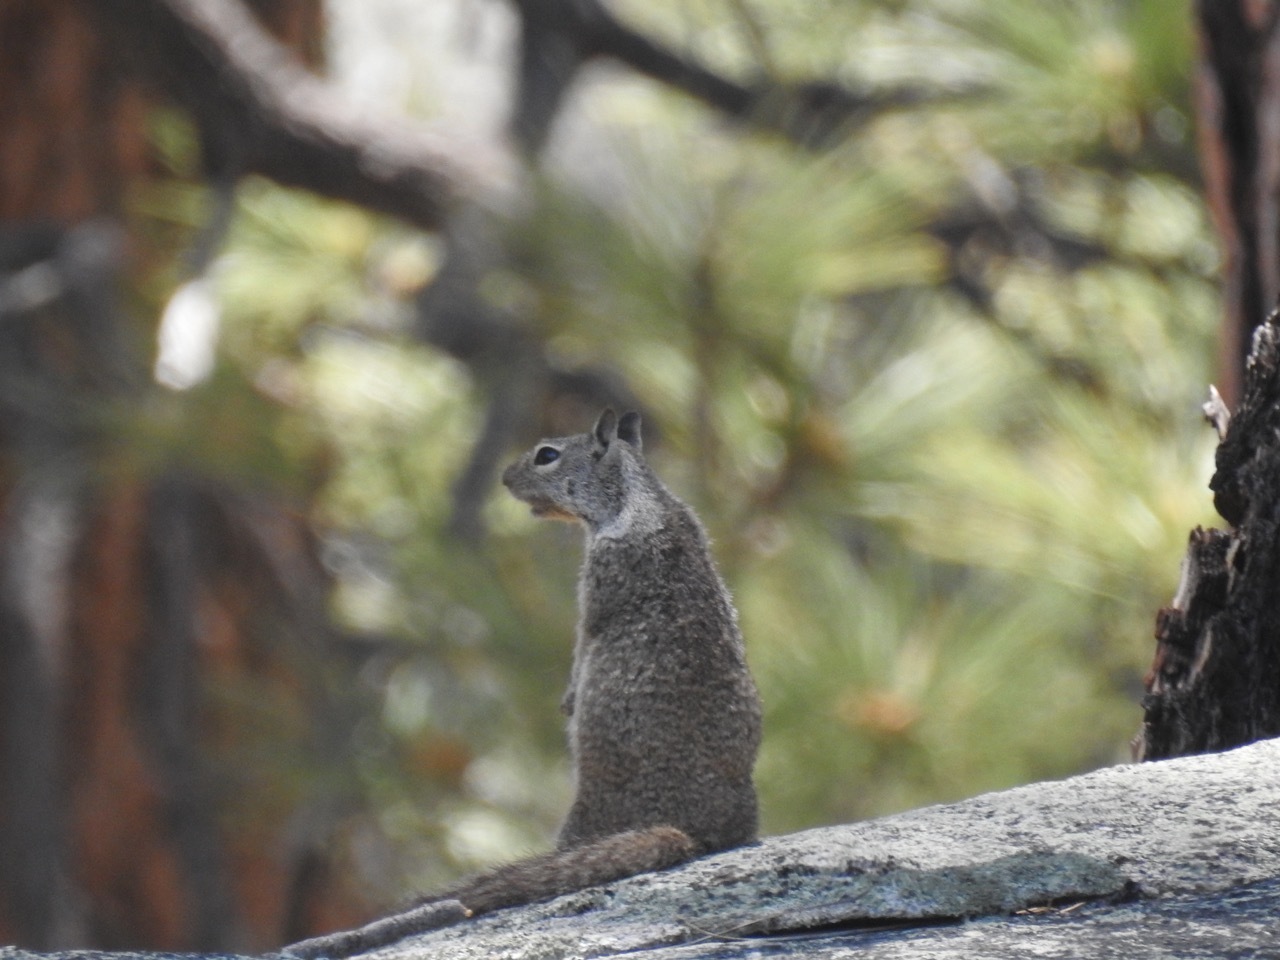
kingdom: Animalia
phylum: Chordata
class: Mammalia
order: Rodentia
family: Sciuridae
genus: Otospermophilus
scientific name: Otospermophilus beecheyi
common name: California ground squirrel
